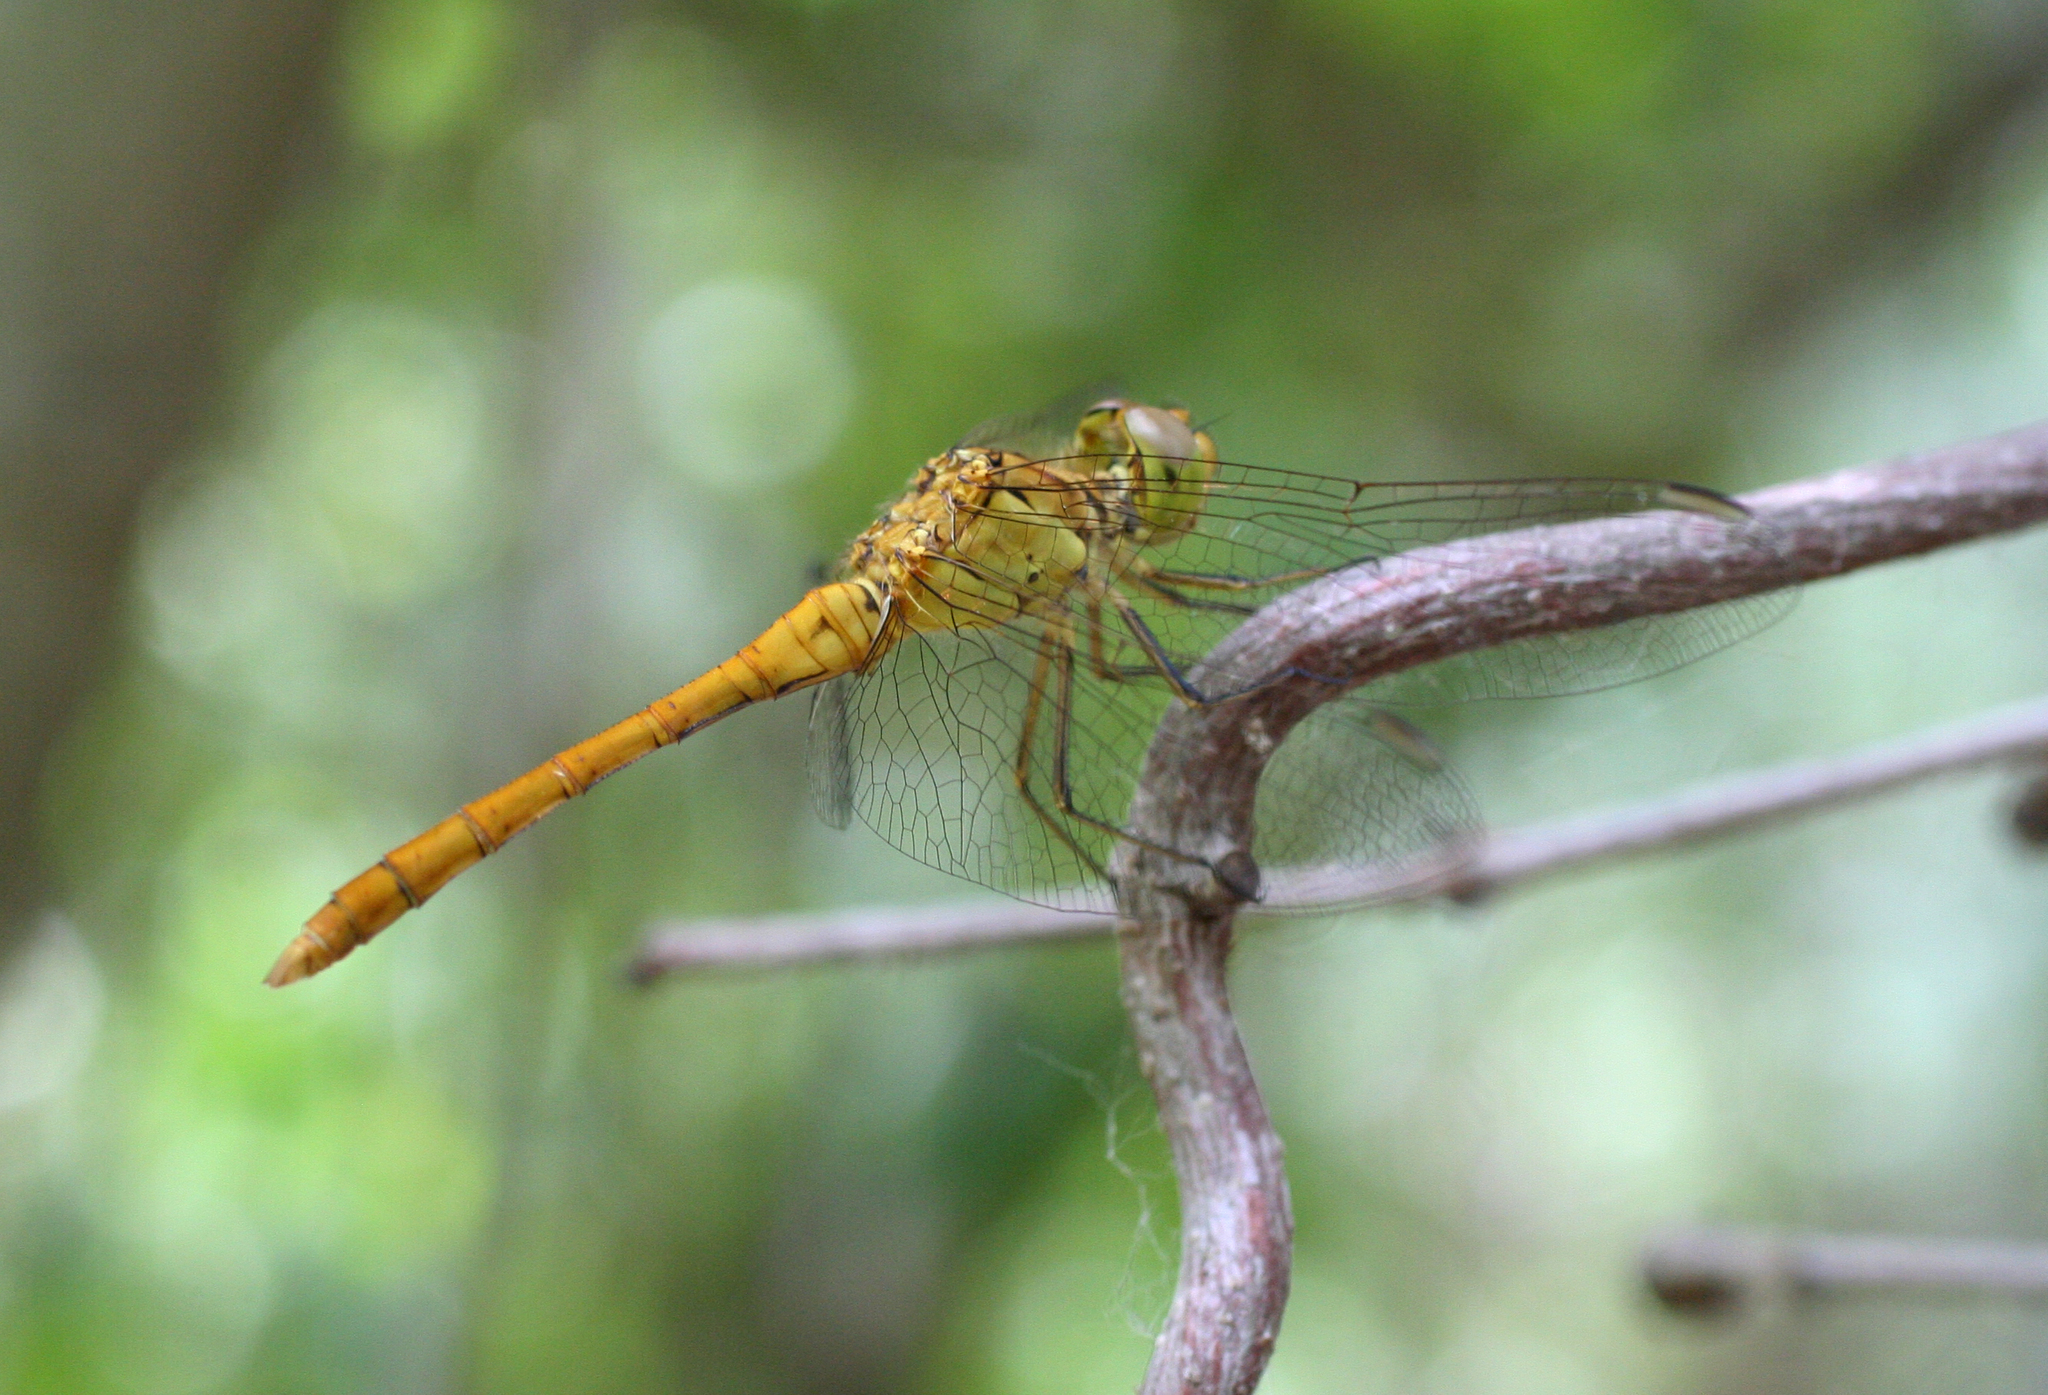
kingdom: Animalia
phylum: Arthropoda
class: Insecta
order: Odonata
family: Libellulidae
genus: Sympetrum
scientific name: Sympetrum meridionale
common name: Southern darter
